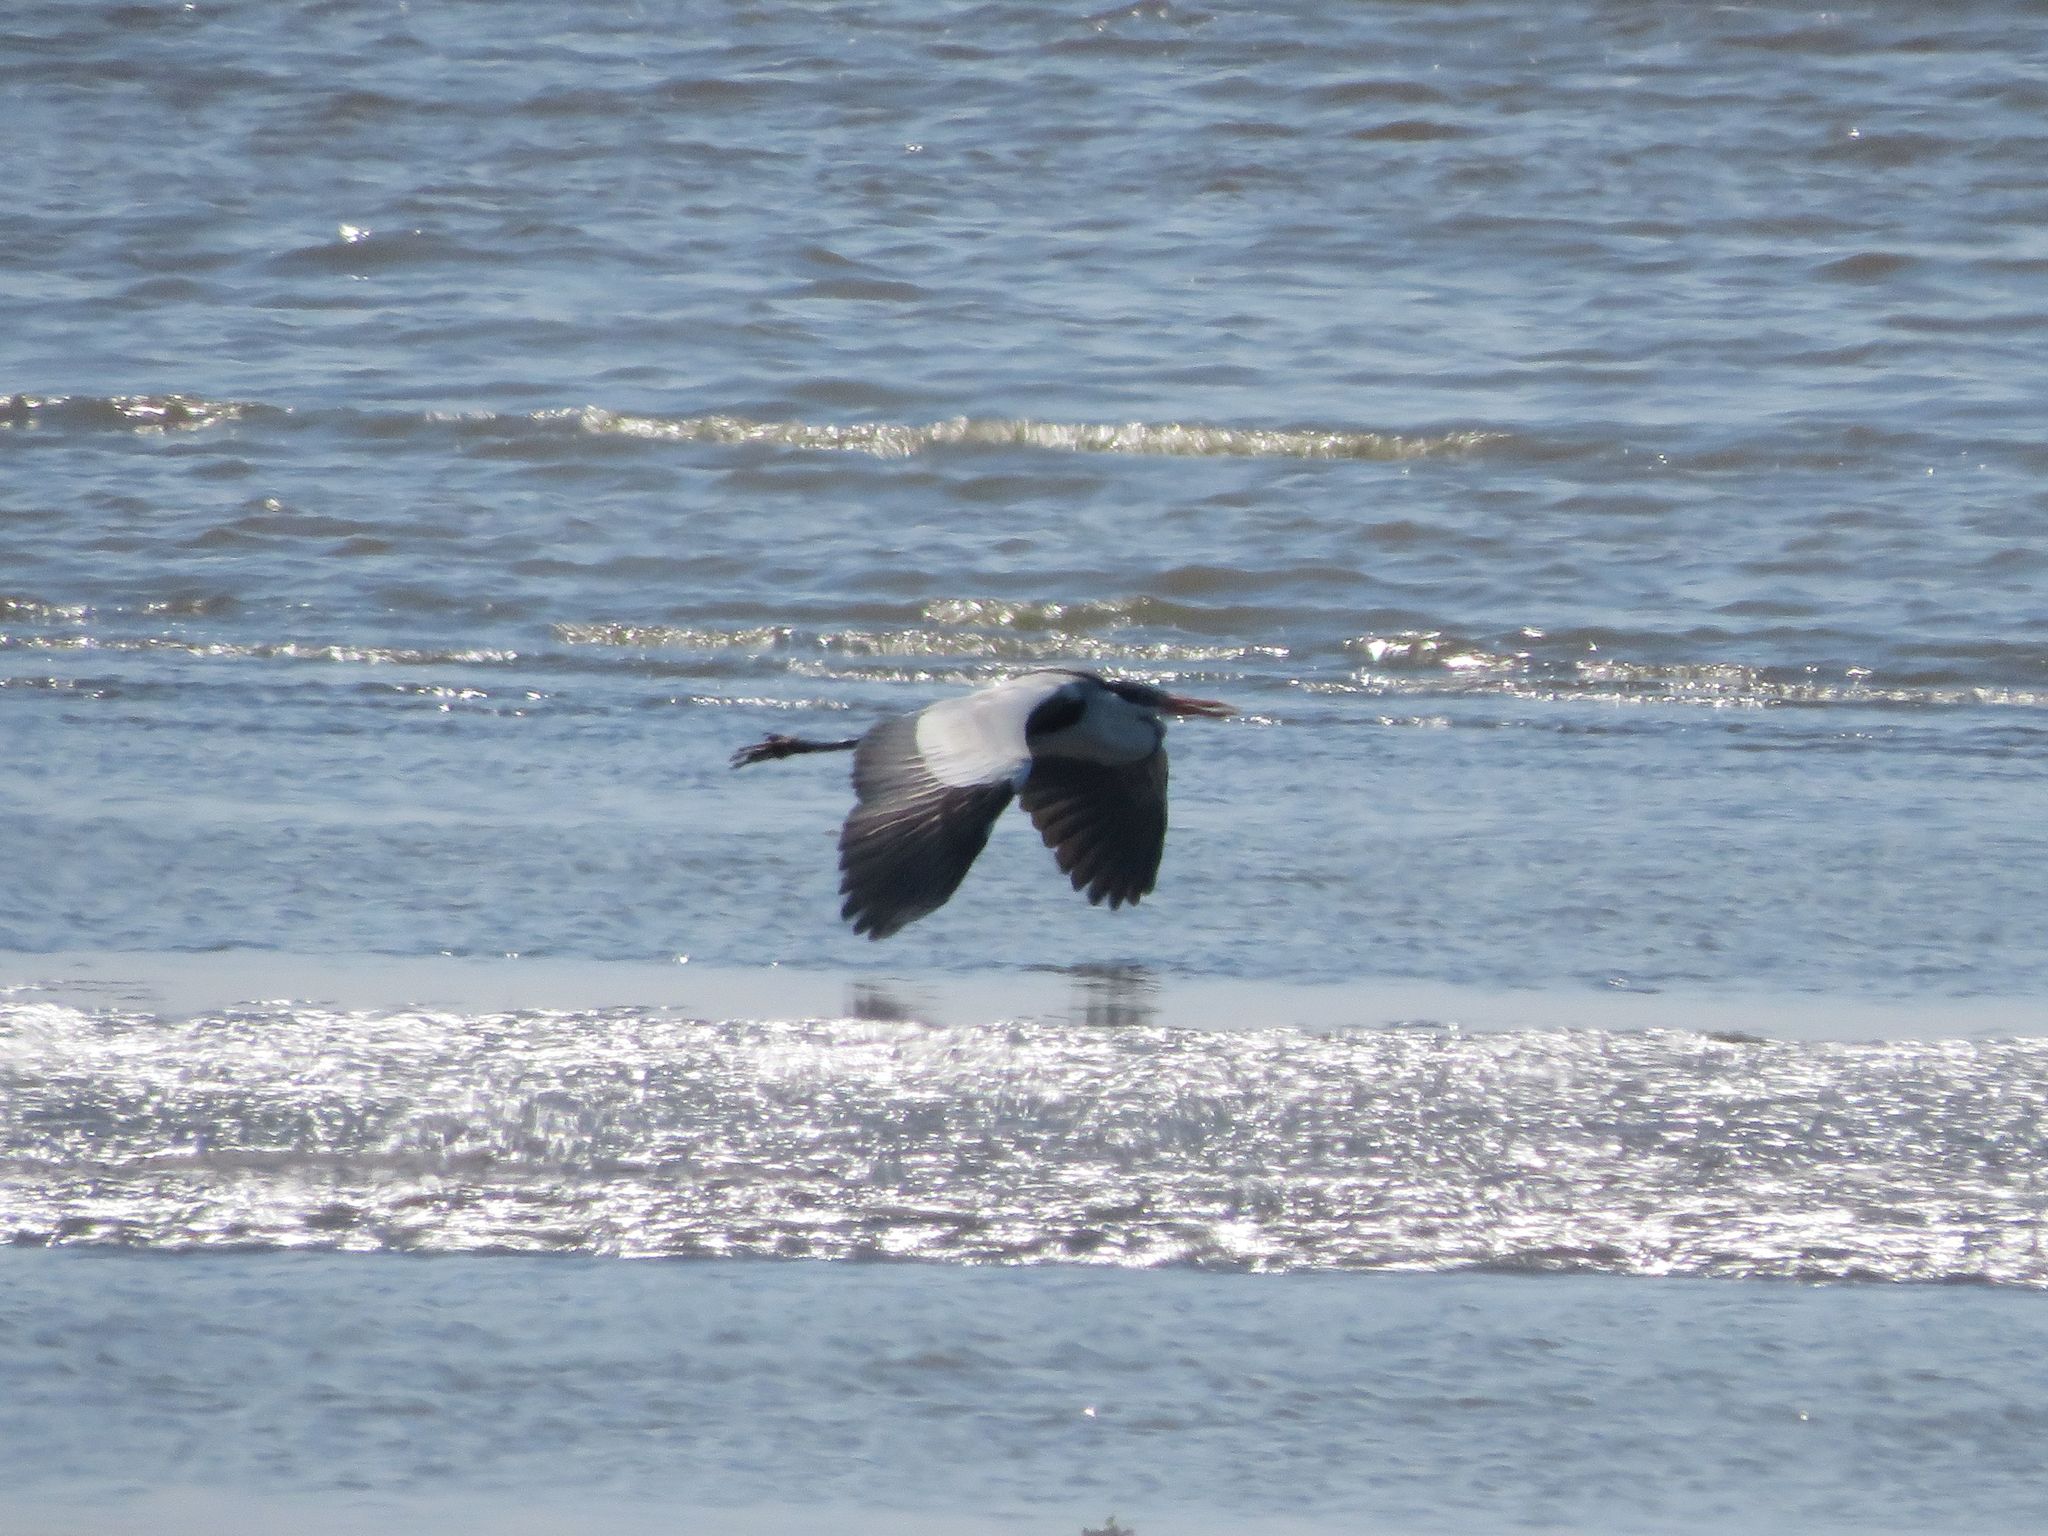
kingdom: Animalia
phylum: Chordata
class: Aves
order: Pelecaniformes
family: Ardeidae
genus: Ardea
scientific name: Ardea cocoi
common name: Cocoi heron
